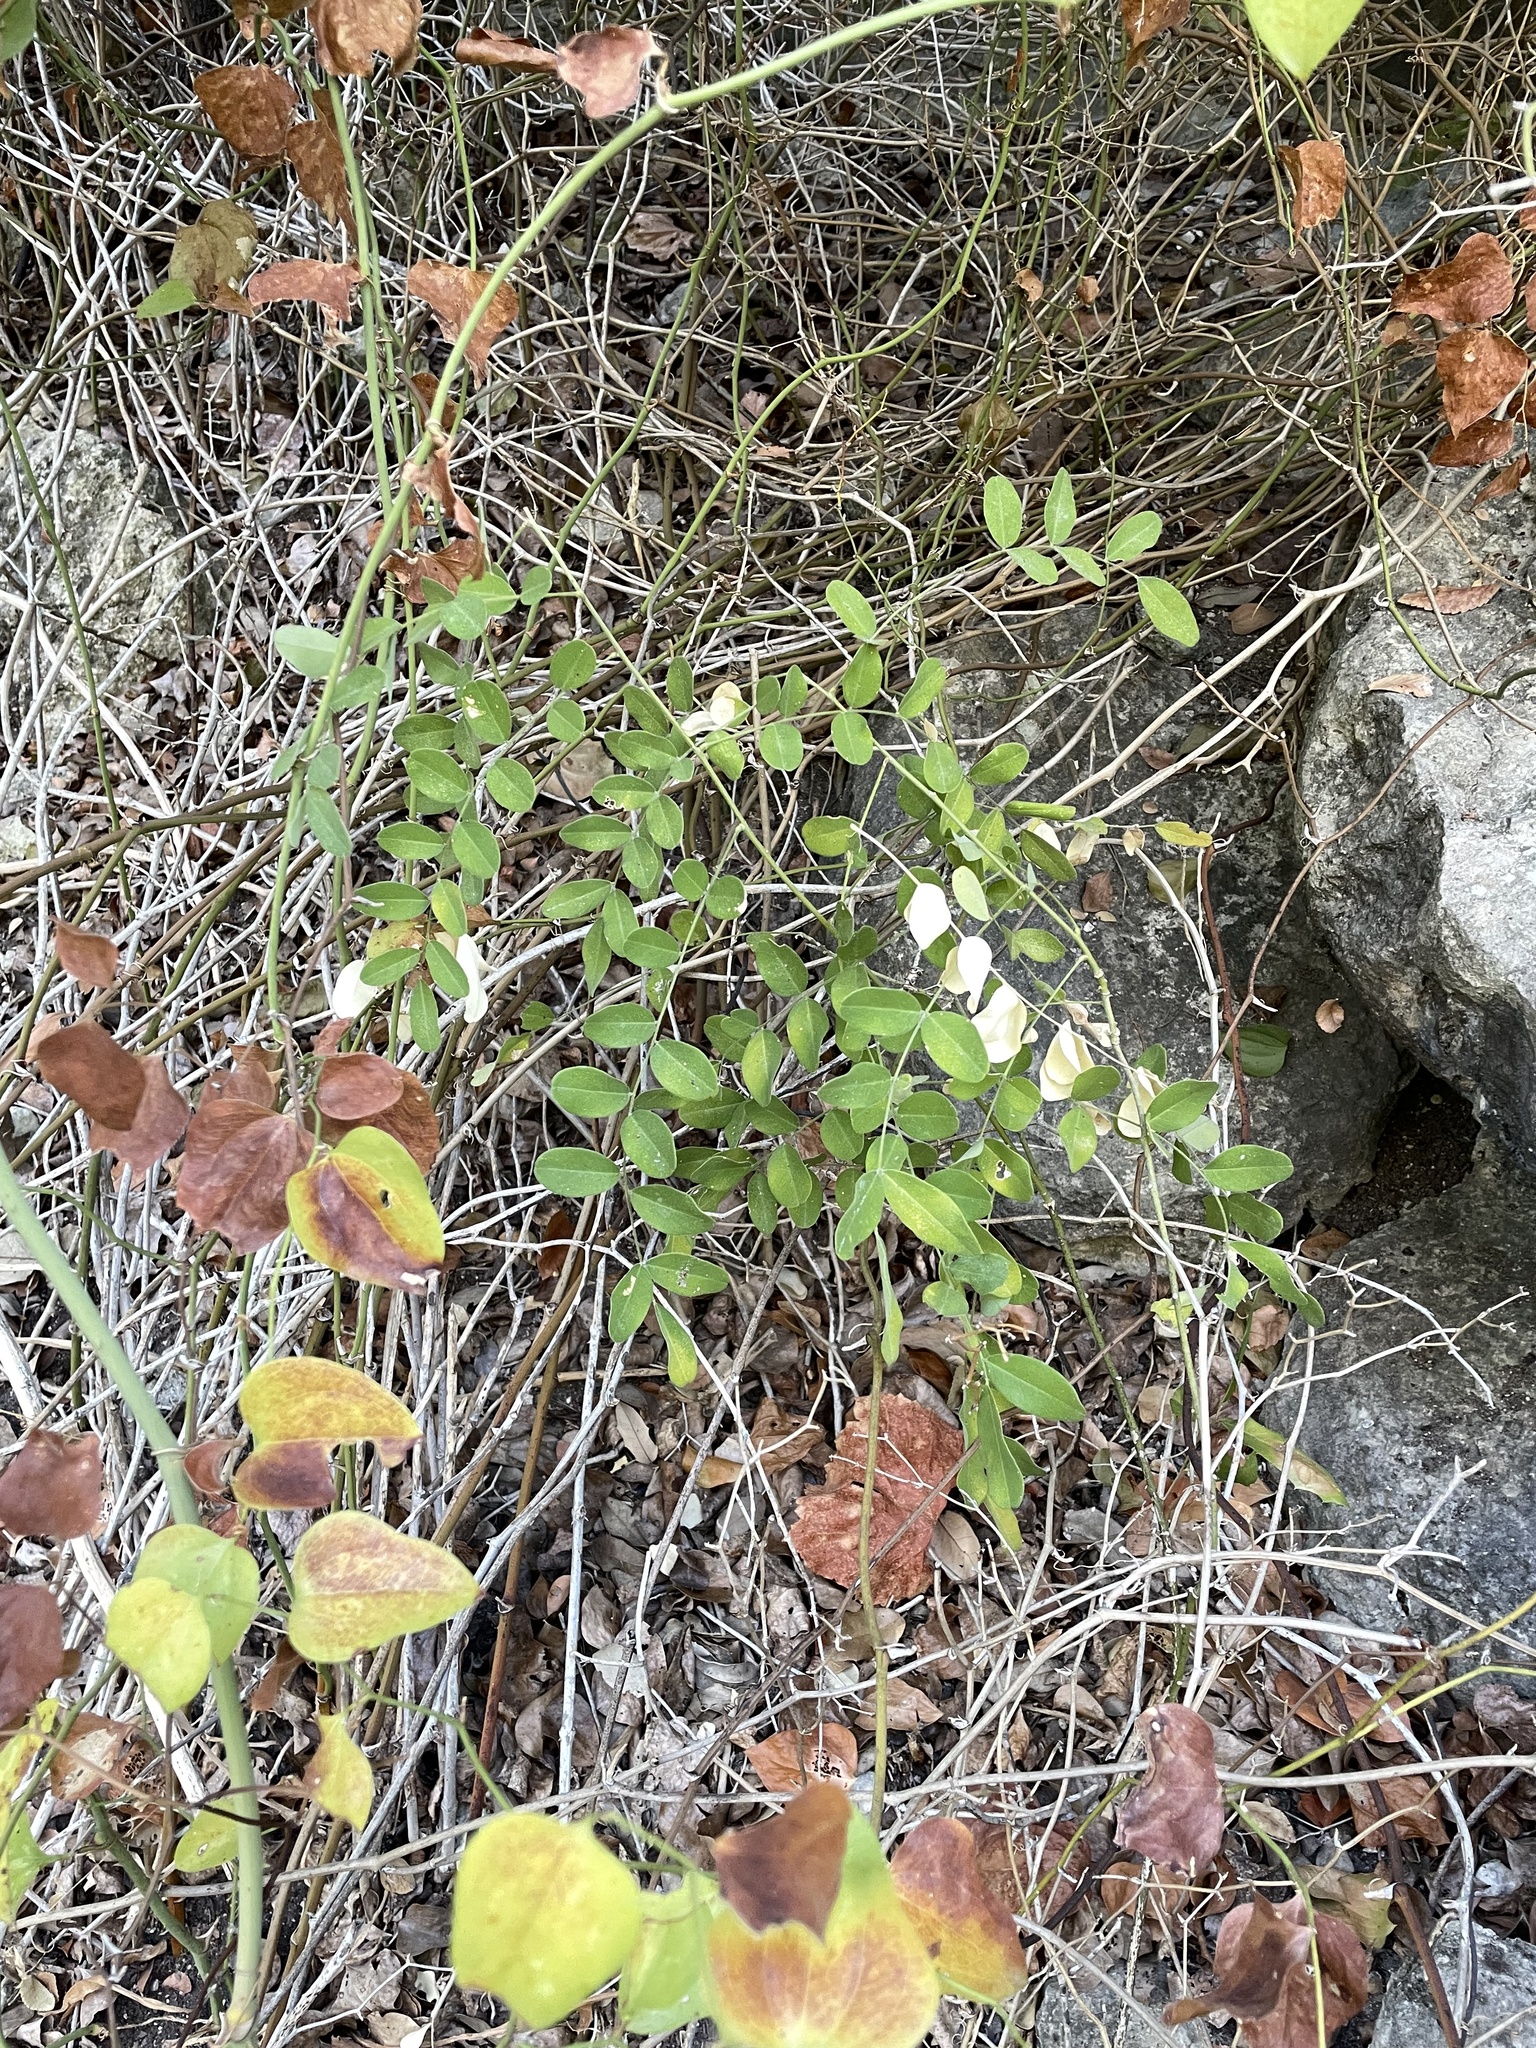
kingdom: Plantae
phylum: Tracheophyta
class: Magnoliopsida
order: Fabales
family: Fabaceae
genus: Styphnolobium
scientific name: Styphnolobium affine
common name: Texas sophora
